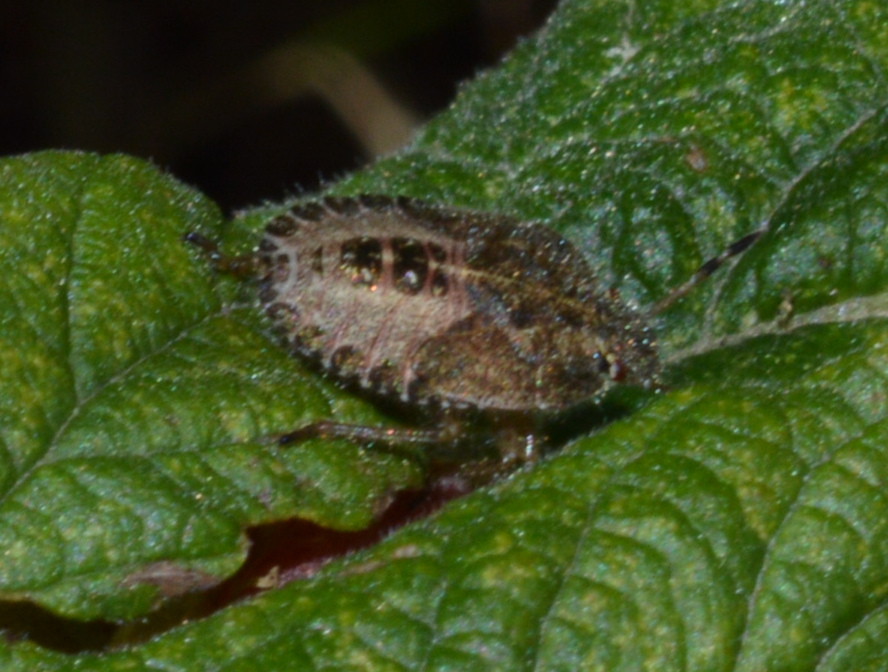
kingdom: Animalia
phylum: Arthropoda
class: Insecta
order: Hemiptera
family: Pentatomidae
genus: Dolycoris
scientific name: Dolycoris baccarum
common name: Sloe bug
